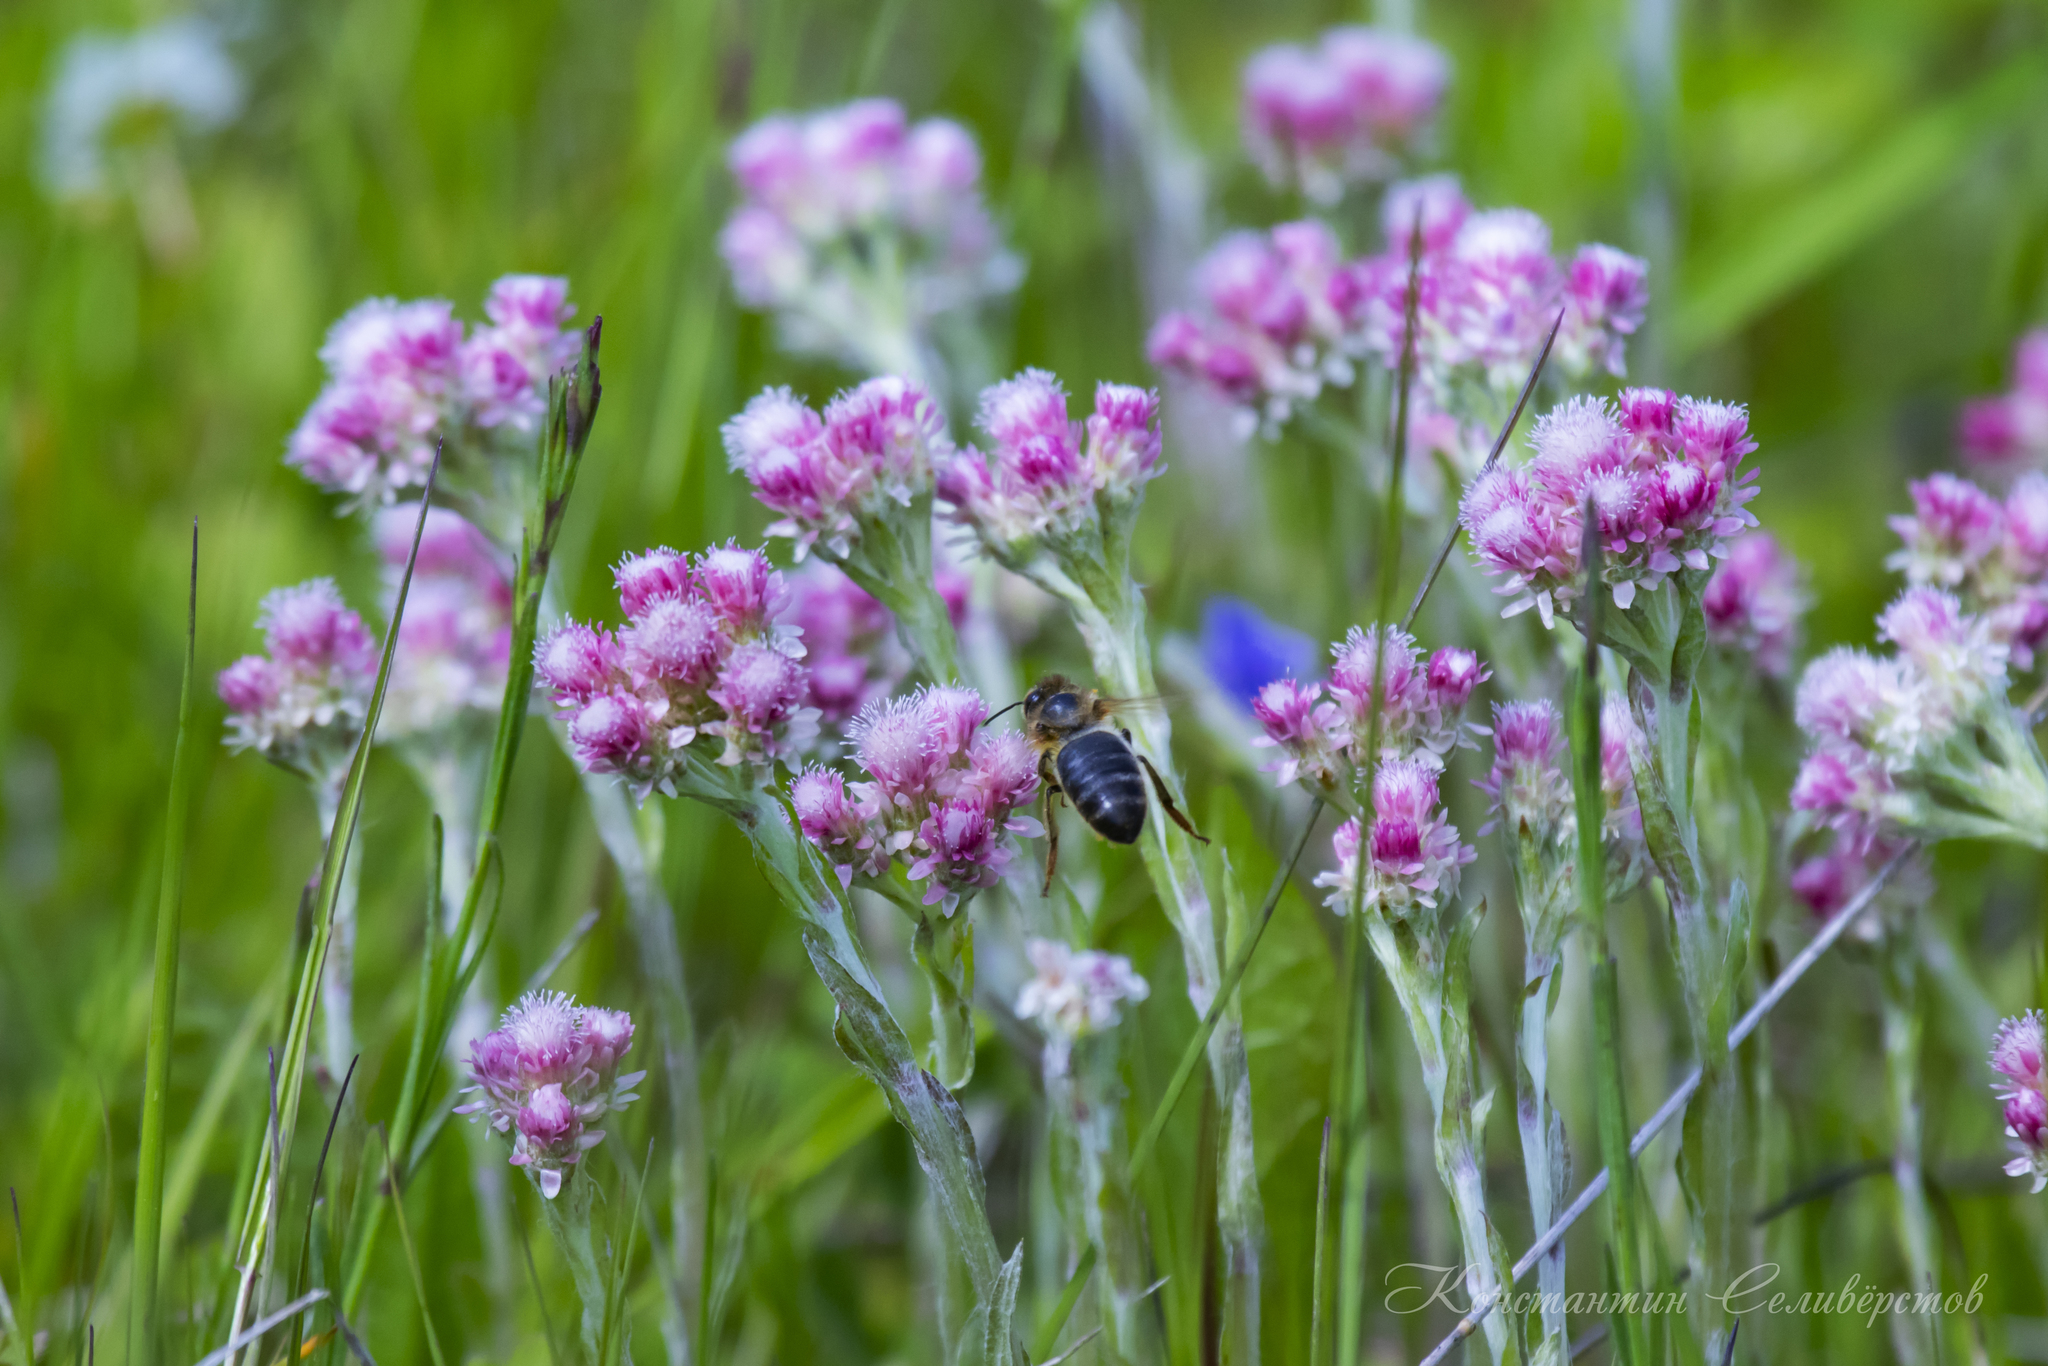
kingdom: Plantae
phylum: Tracheophyta
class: Magnoliopsida
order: Asterales
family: Asteraceae
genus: Antennaria
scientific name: Antennaria dioica
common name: Mountain everlasting
